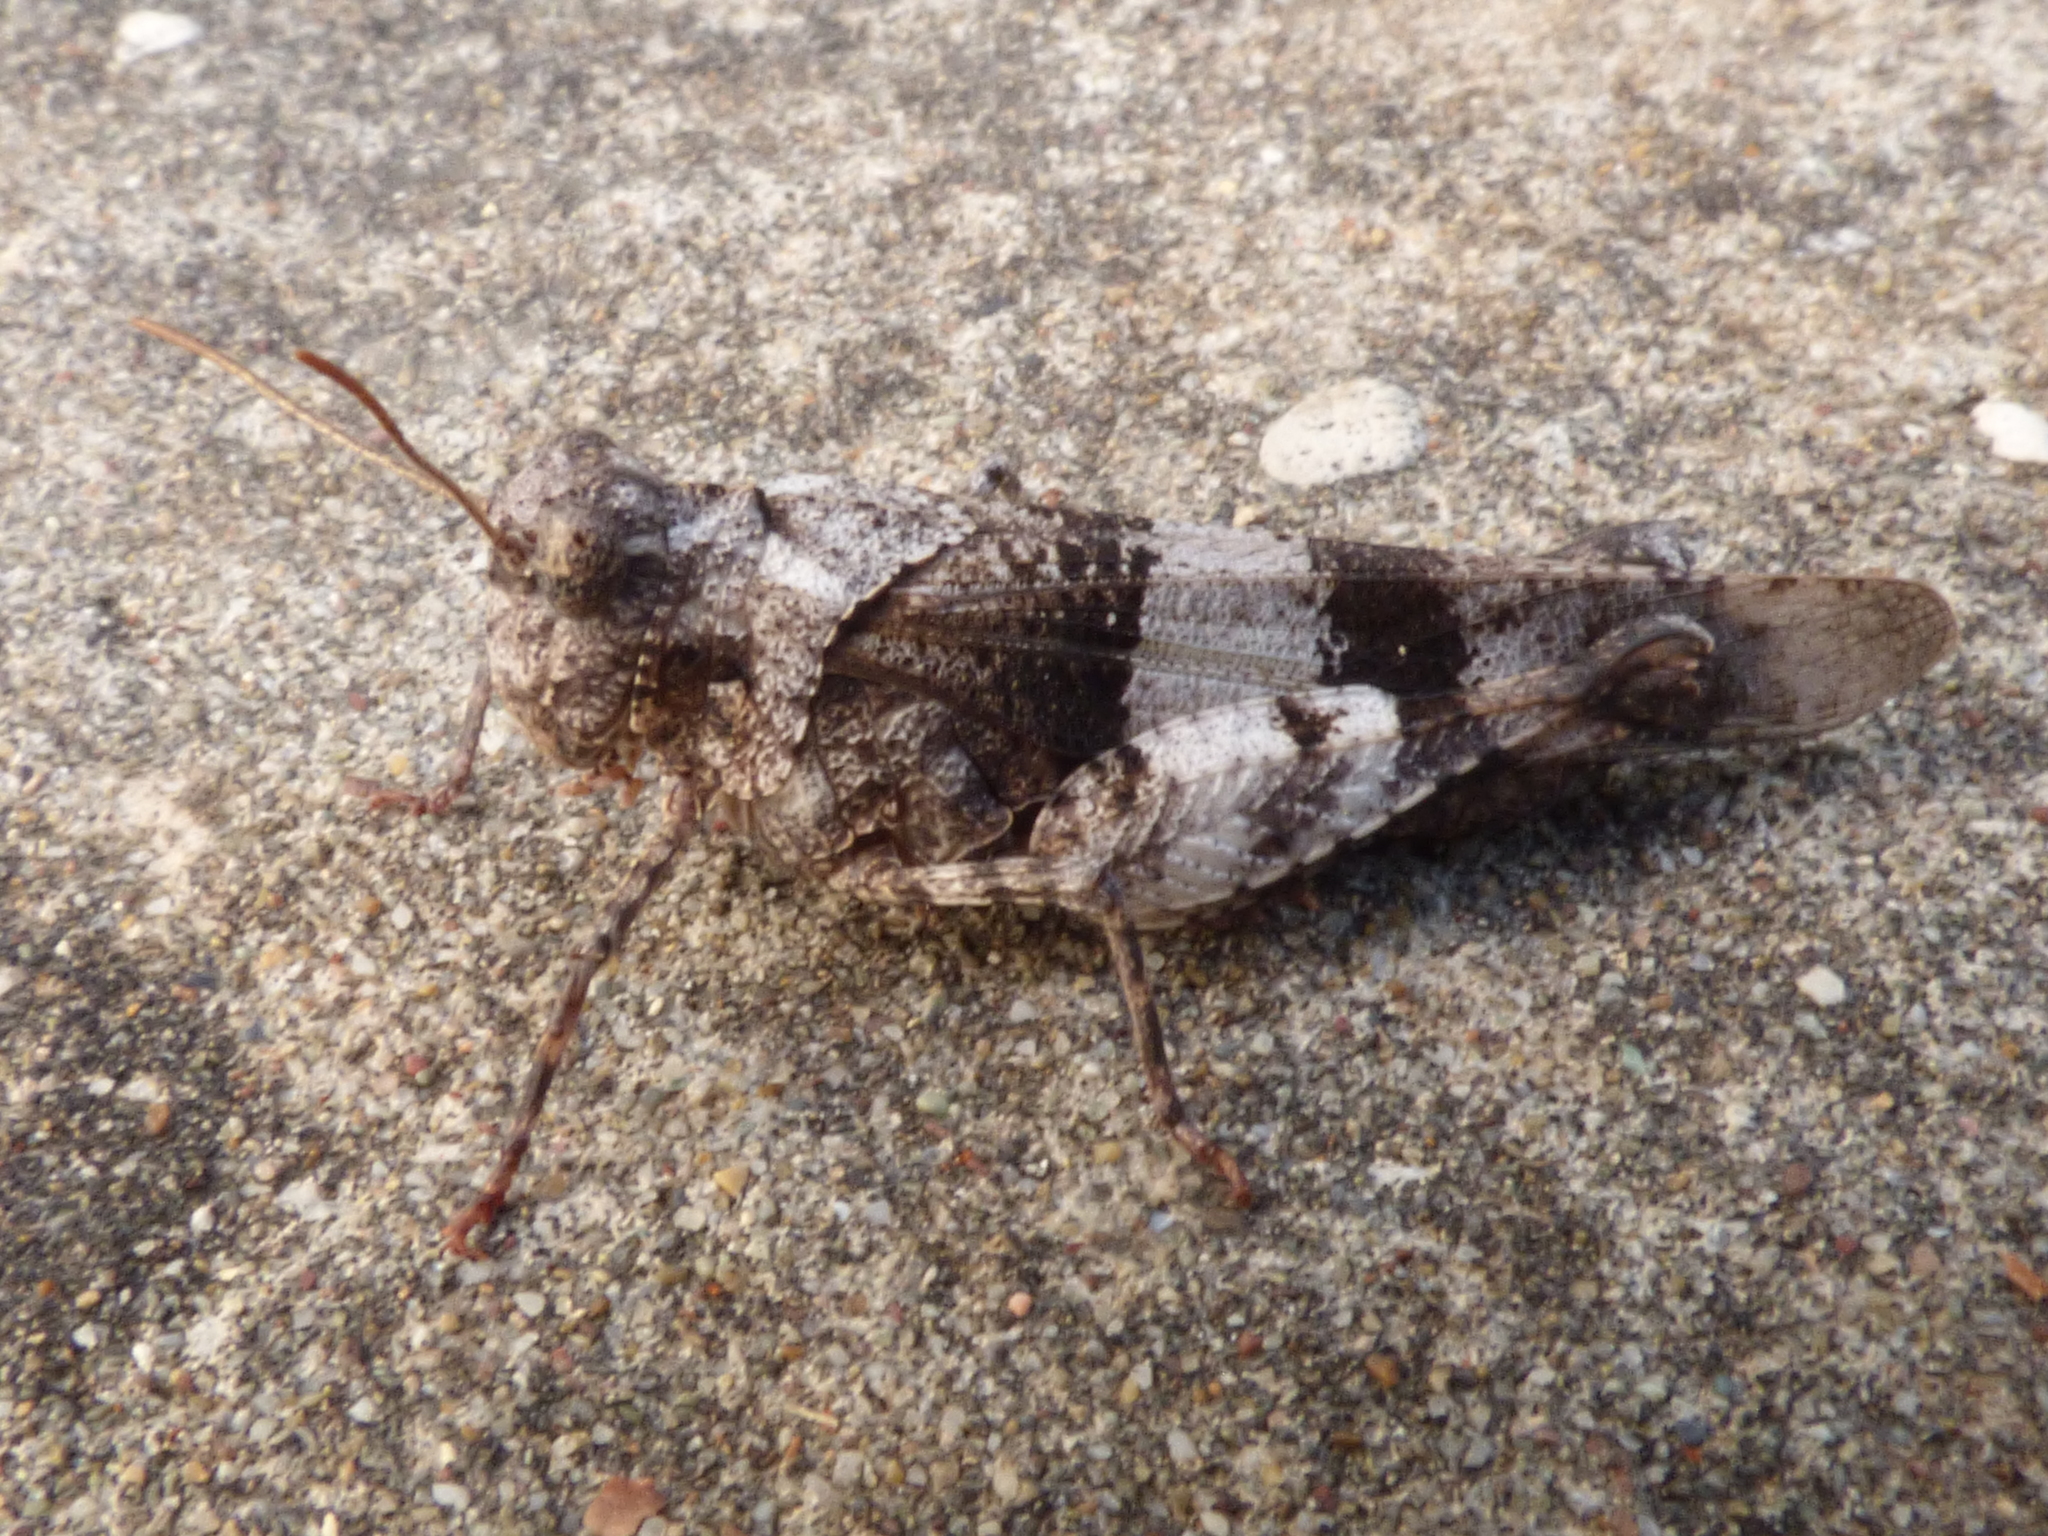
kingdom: Animalia
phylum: Arthropoda
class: Insecta
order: Orthoptera
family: Acrididae
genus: Oedipoda
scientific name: Oedipoda caerulescens
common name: Blue-winged grasshopper
